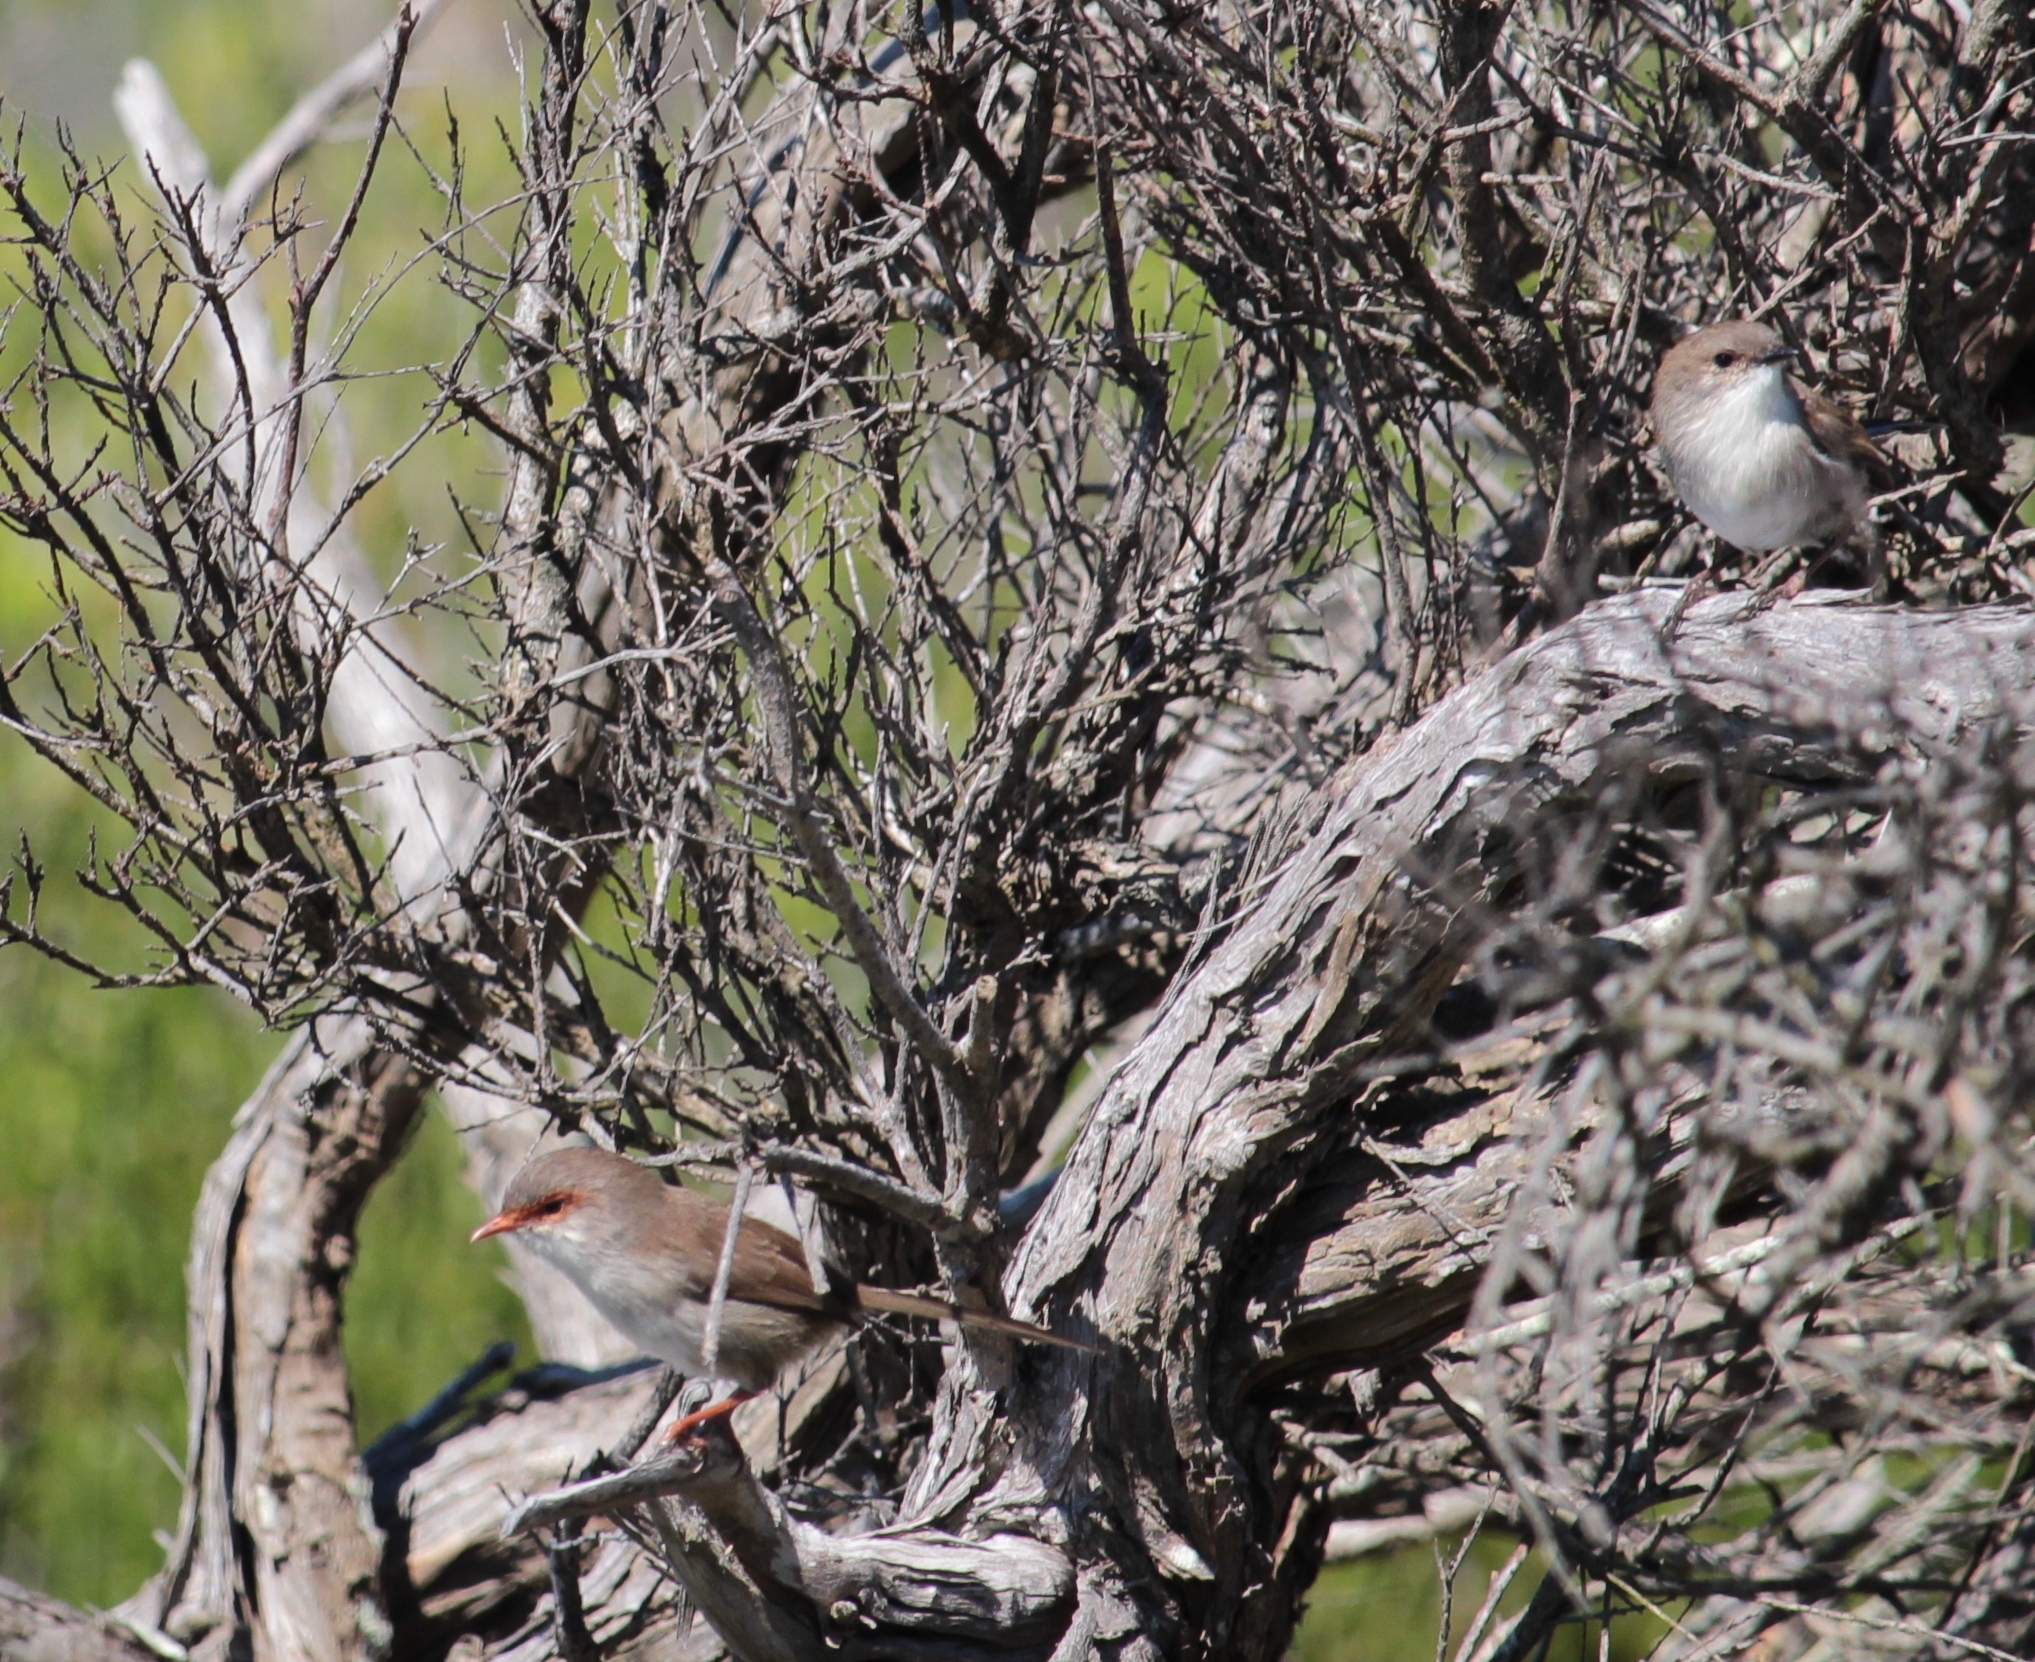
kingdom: Animalia
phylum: Chordata
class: Aves
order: Passeriformes
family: Maluridae
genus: Malurus
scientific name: Malurus cyaneus
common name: Superb fairywren
